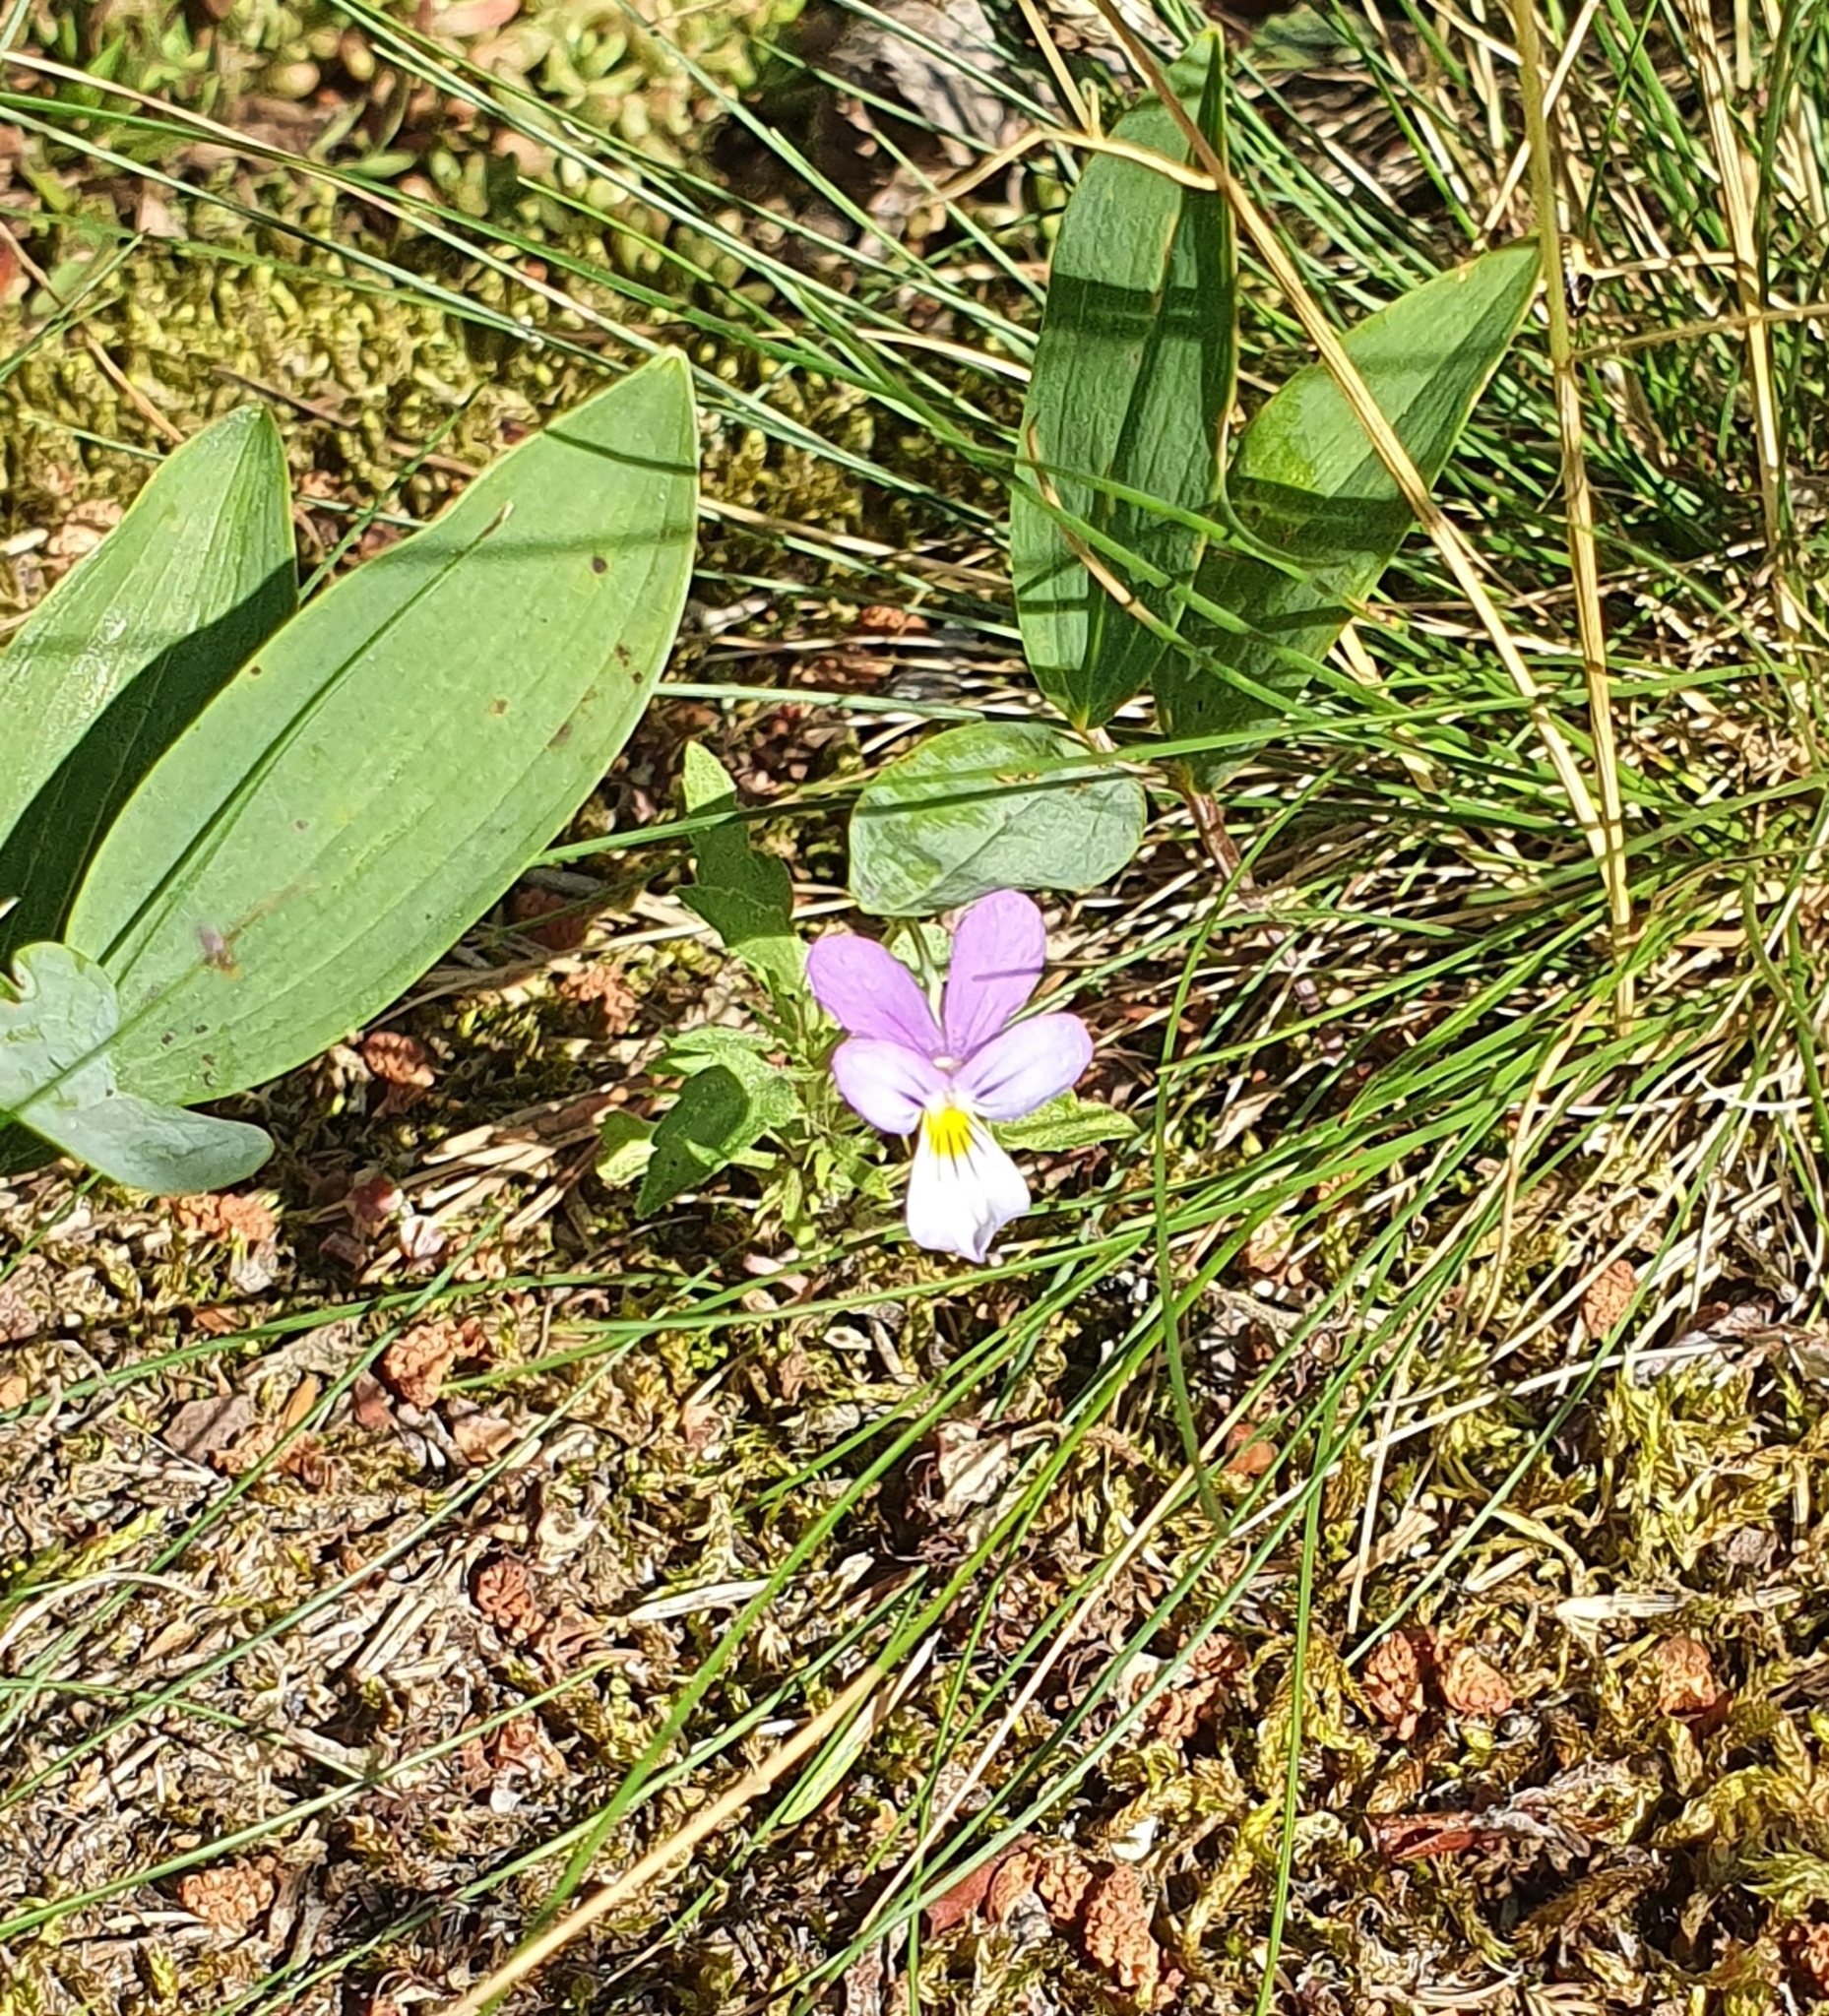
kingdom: Plantae
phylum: Tracheophyta
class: Magnoliopsida
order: Malpighiales
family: Violaceae
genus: Viola
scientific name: Viola tricolor
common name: Pansy
